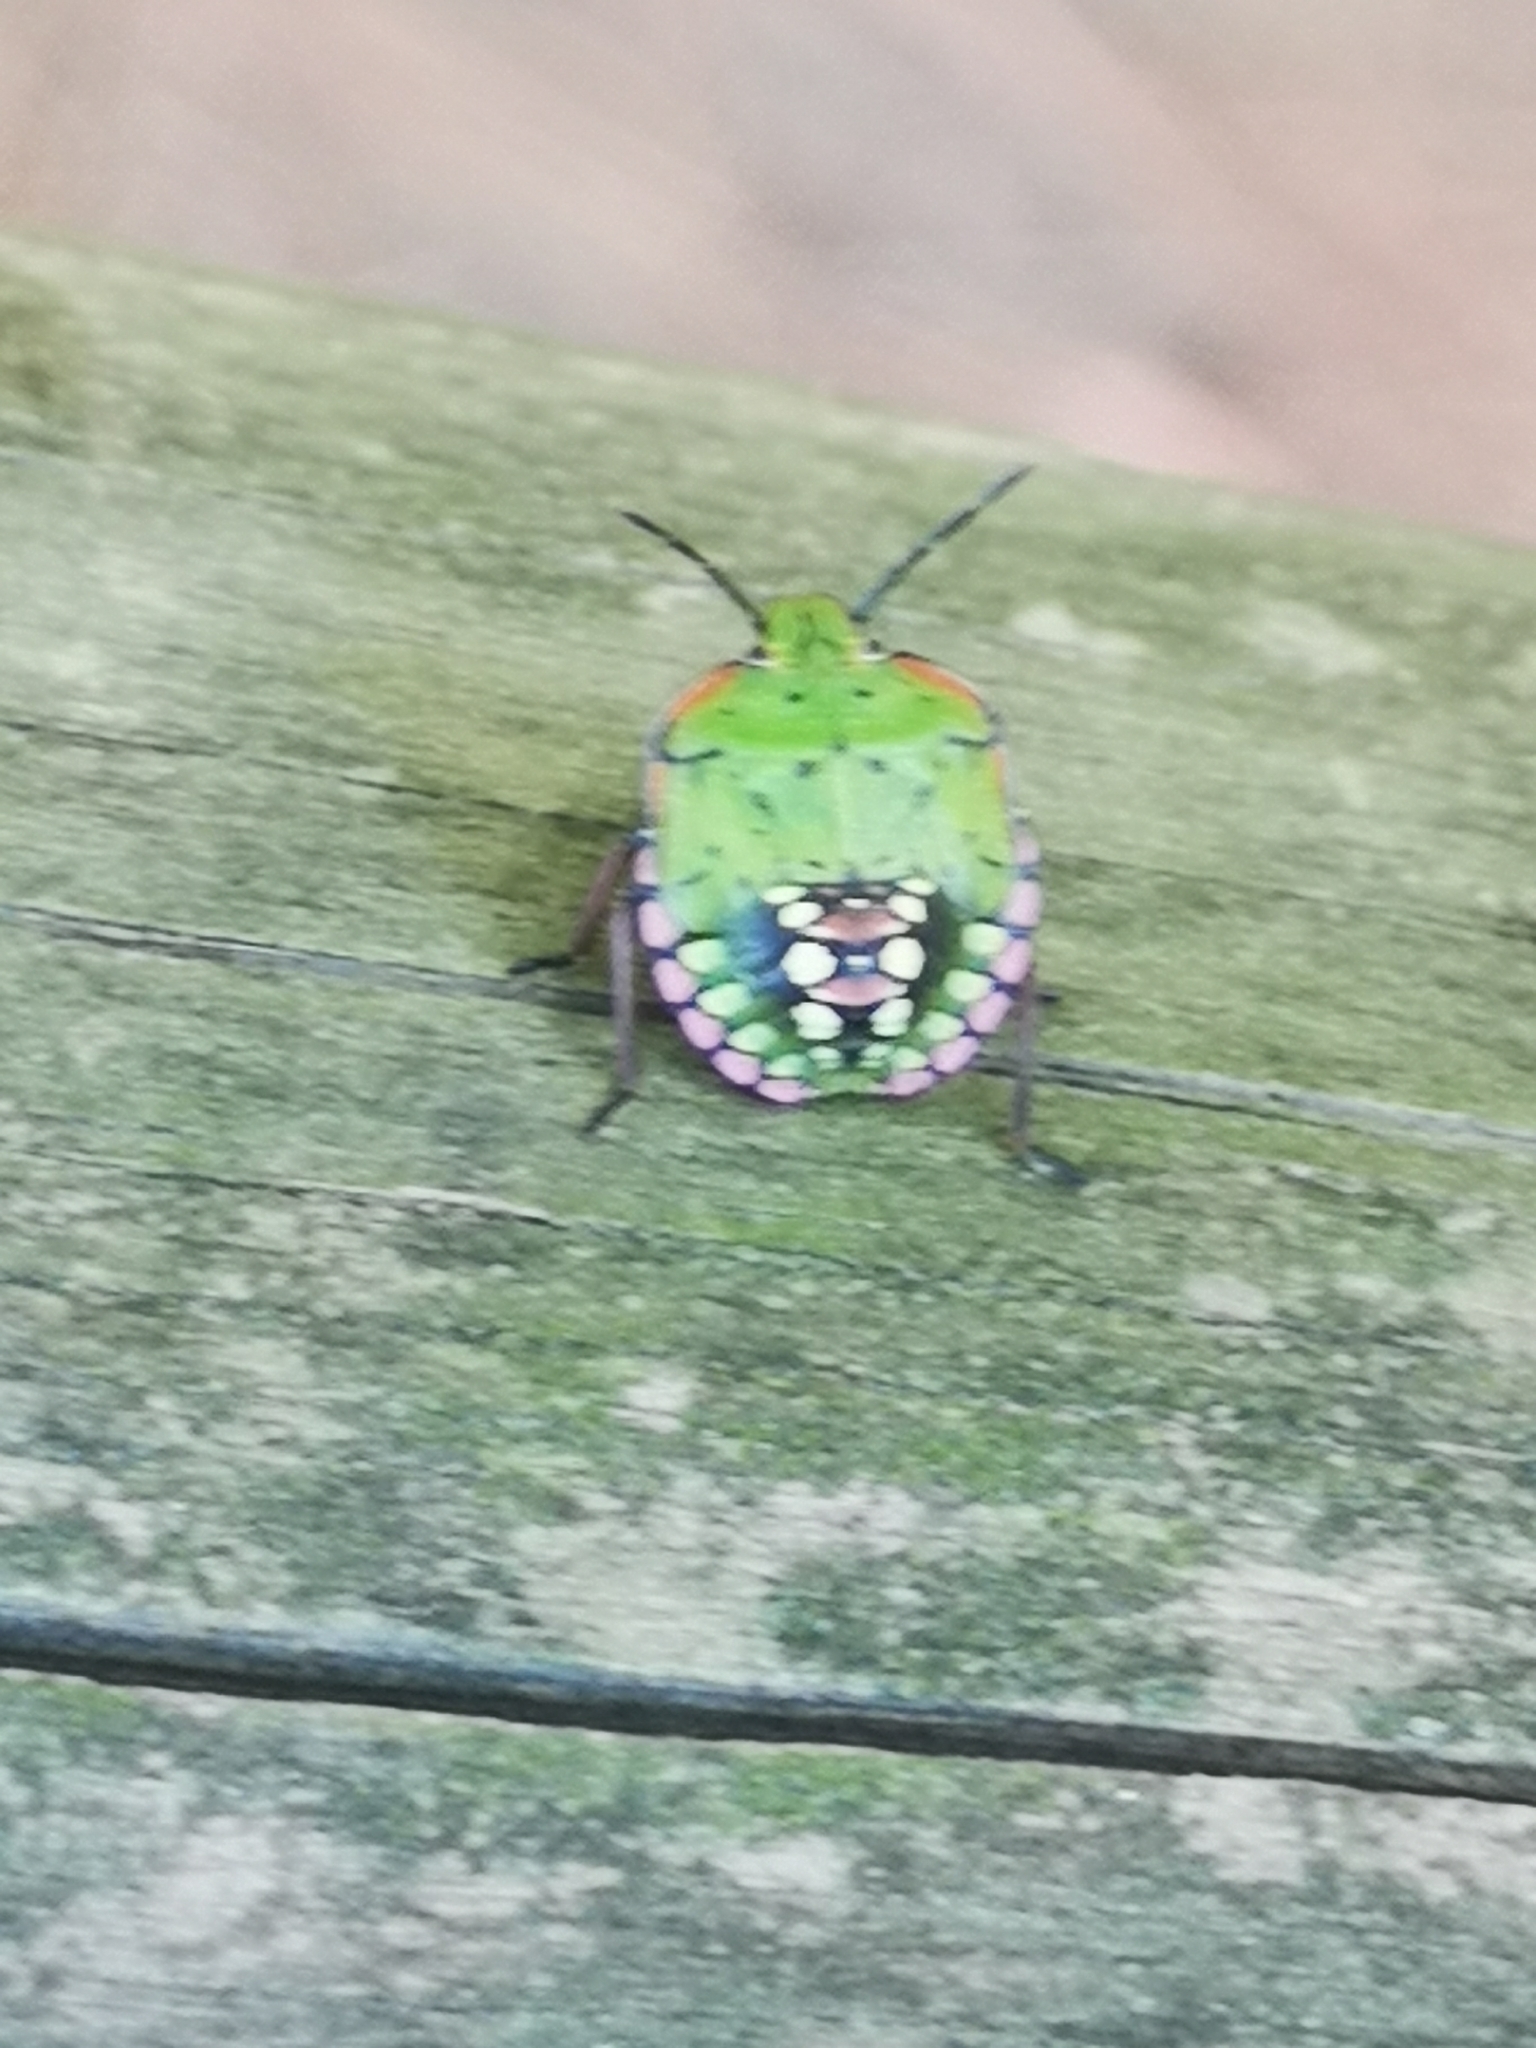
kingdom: Animalia
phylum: Arthropoda
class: Insecta
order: Hemiptera
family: Pentatomidae
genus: Nezara
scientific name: Nezara viridula
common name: Southern green stink bug
